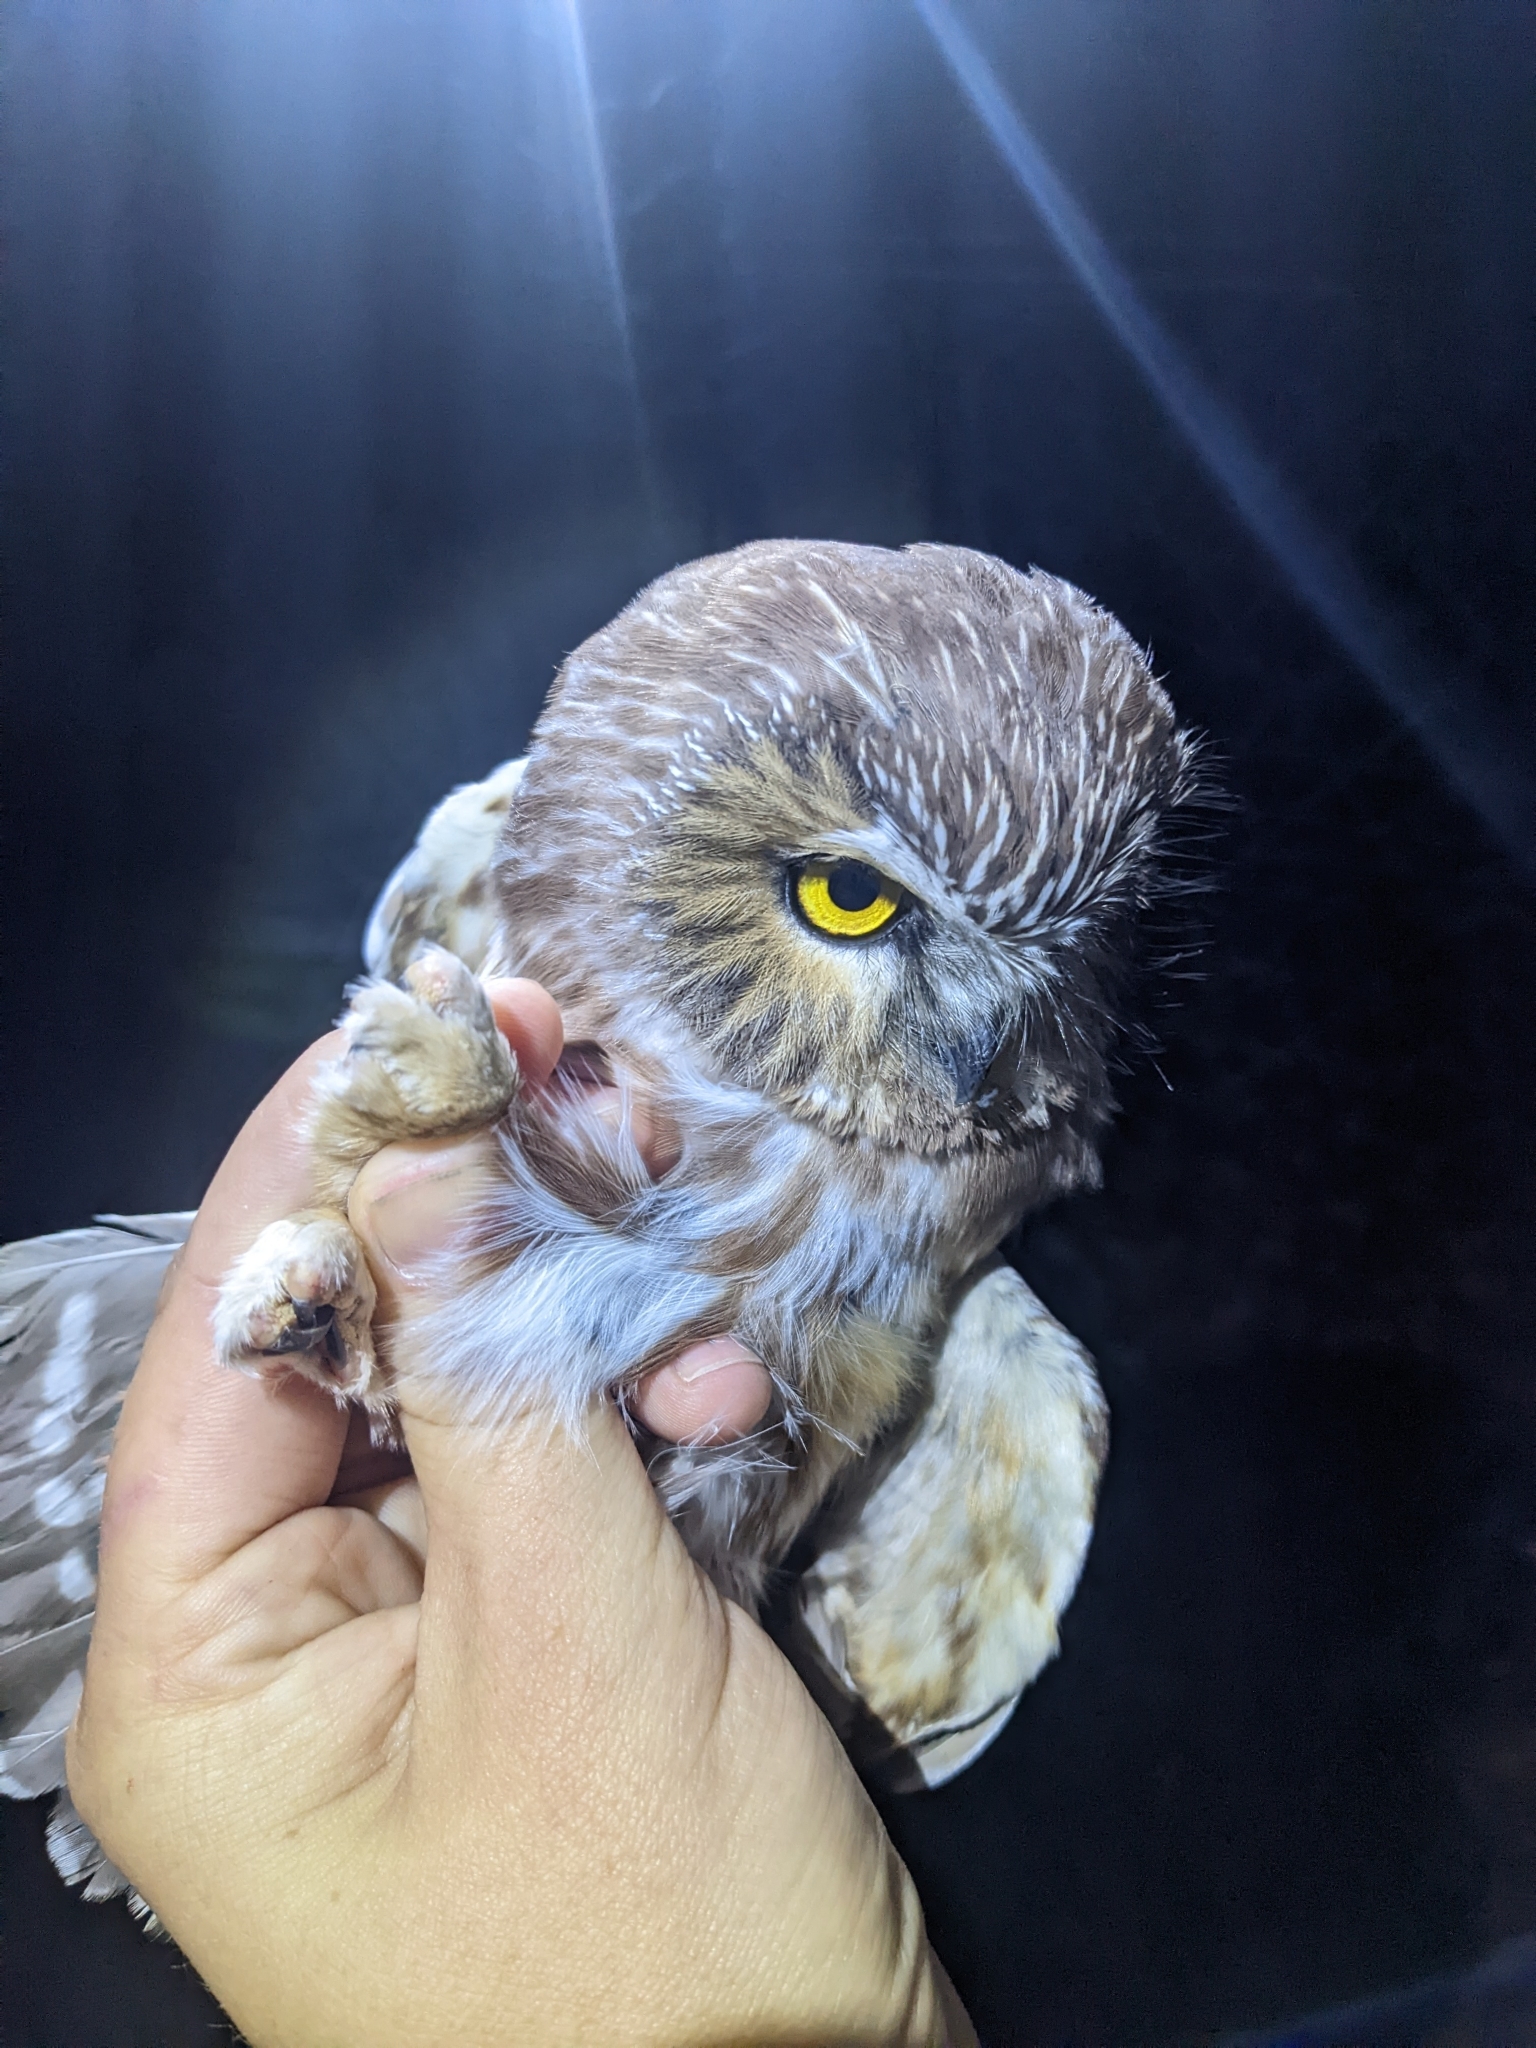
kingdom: Animalia
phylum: Chordata
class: Aves
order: Strigiformes
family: Strigidae
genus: Aegolius
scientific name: Aegolius acadicus
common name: Northern saw-whet owl
